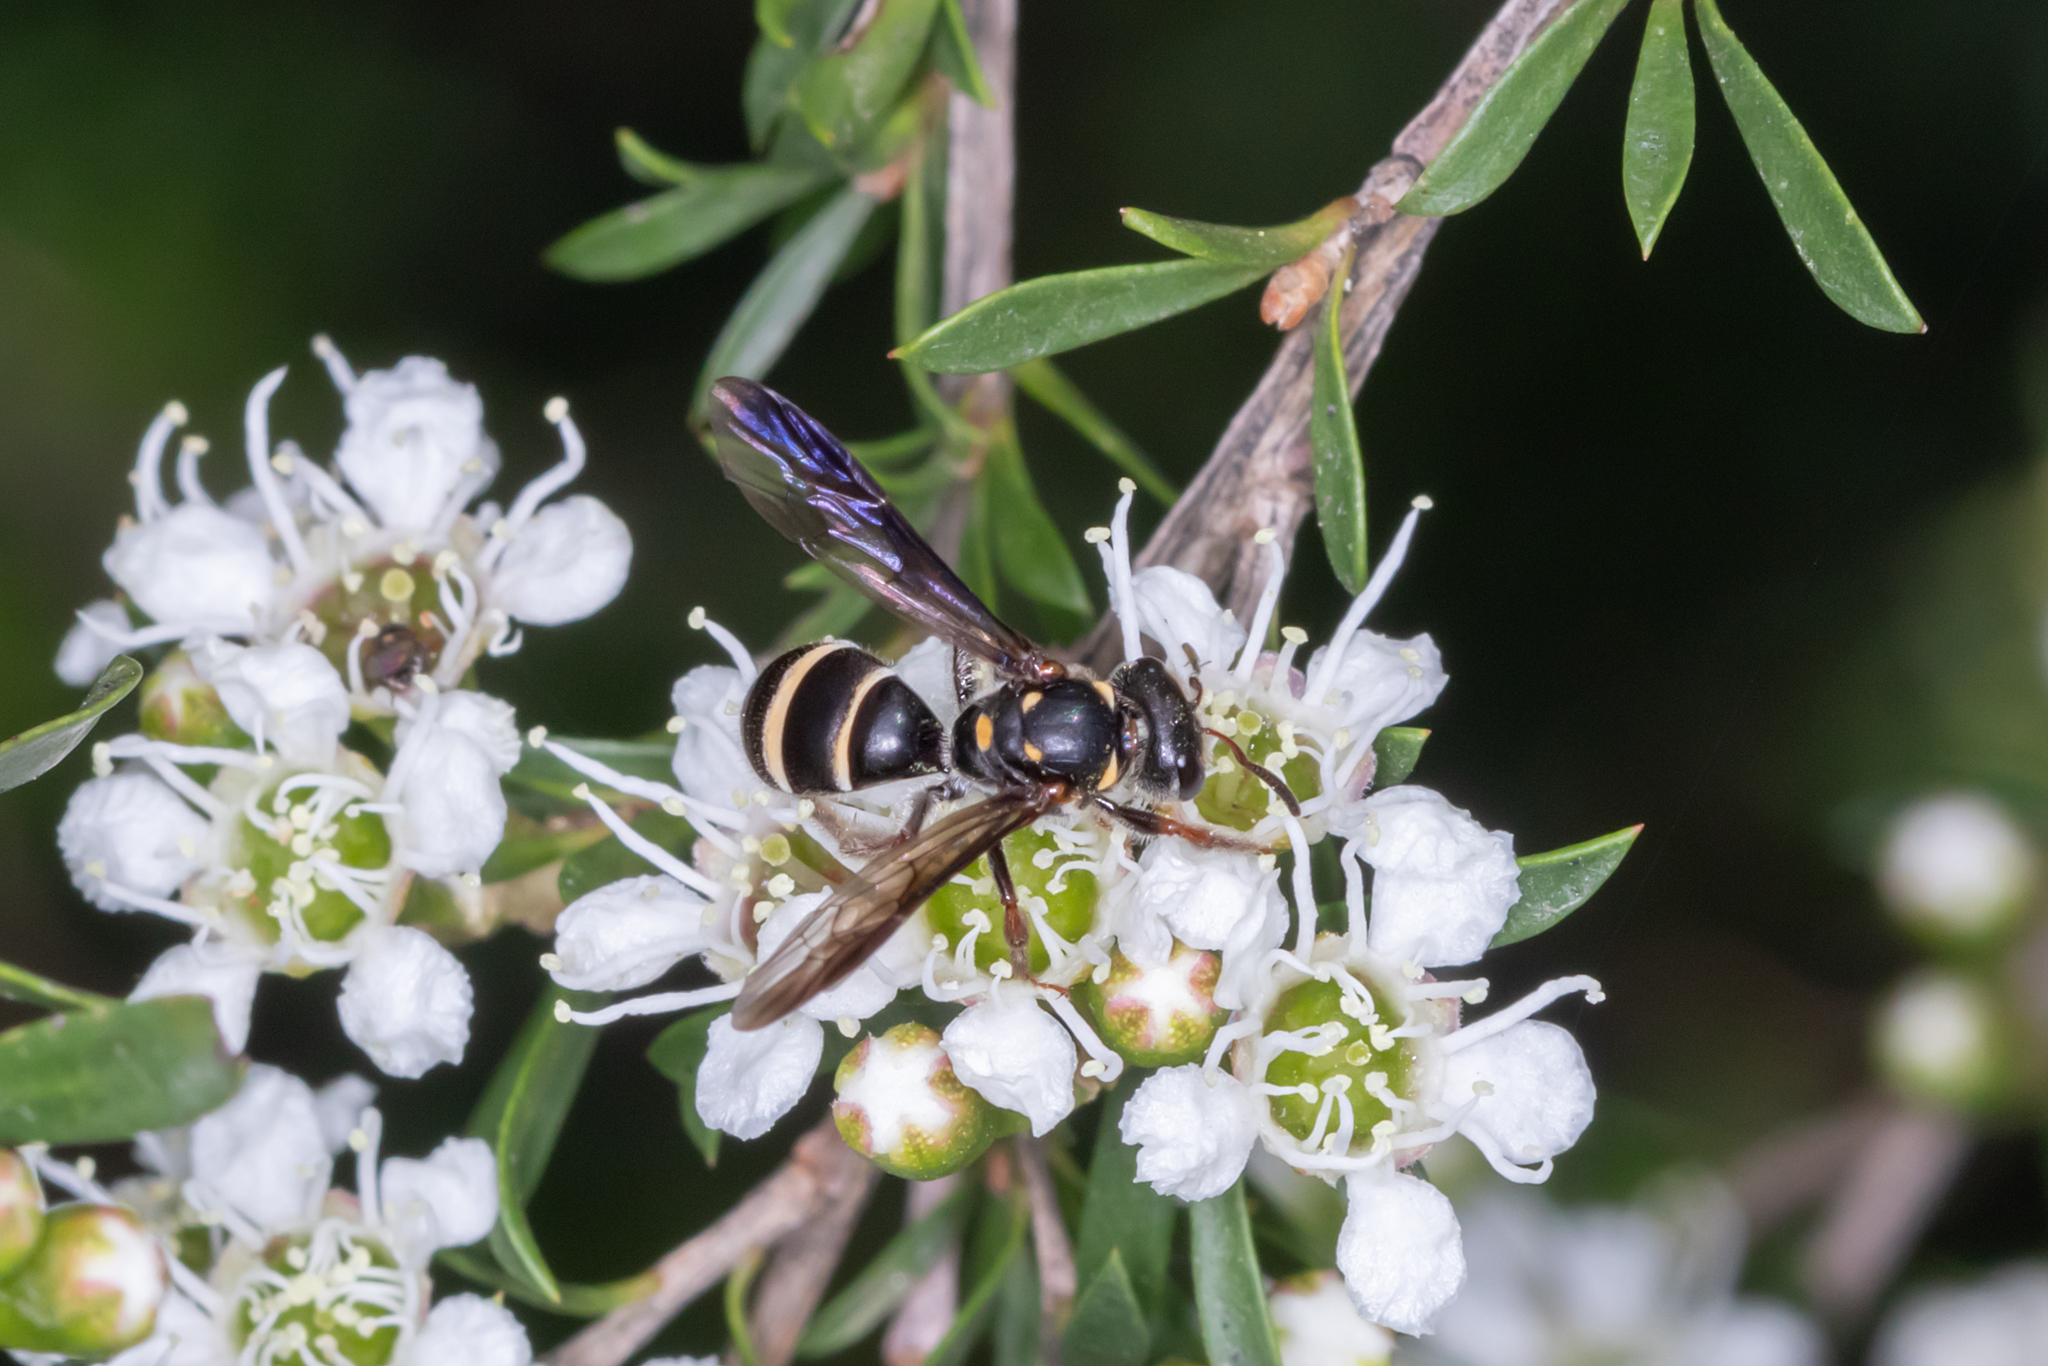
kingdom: Animalia
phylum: Arthropoda
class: Insecta
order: Hymenoptera
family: Halictidae
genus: Lasioglossum
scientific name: Lasioglossum peraustrale
